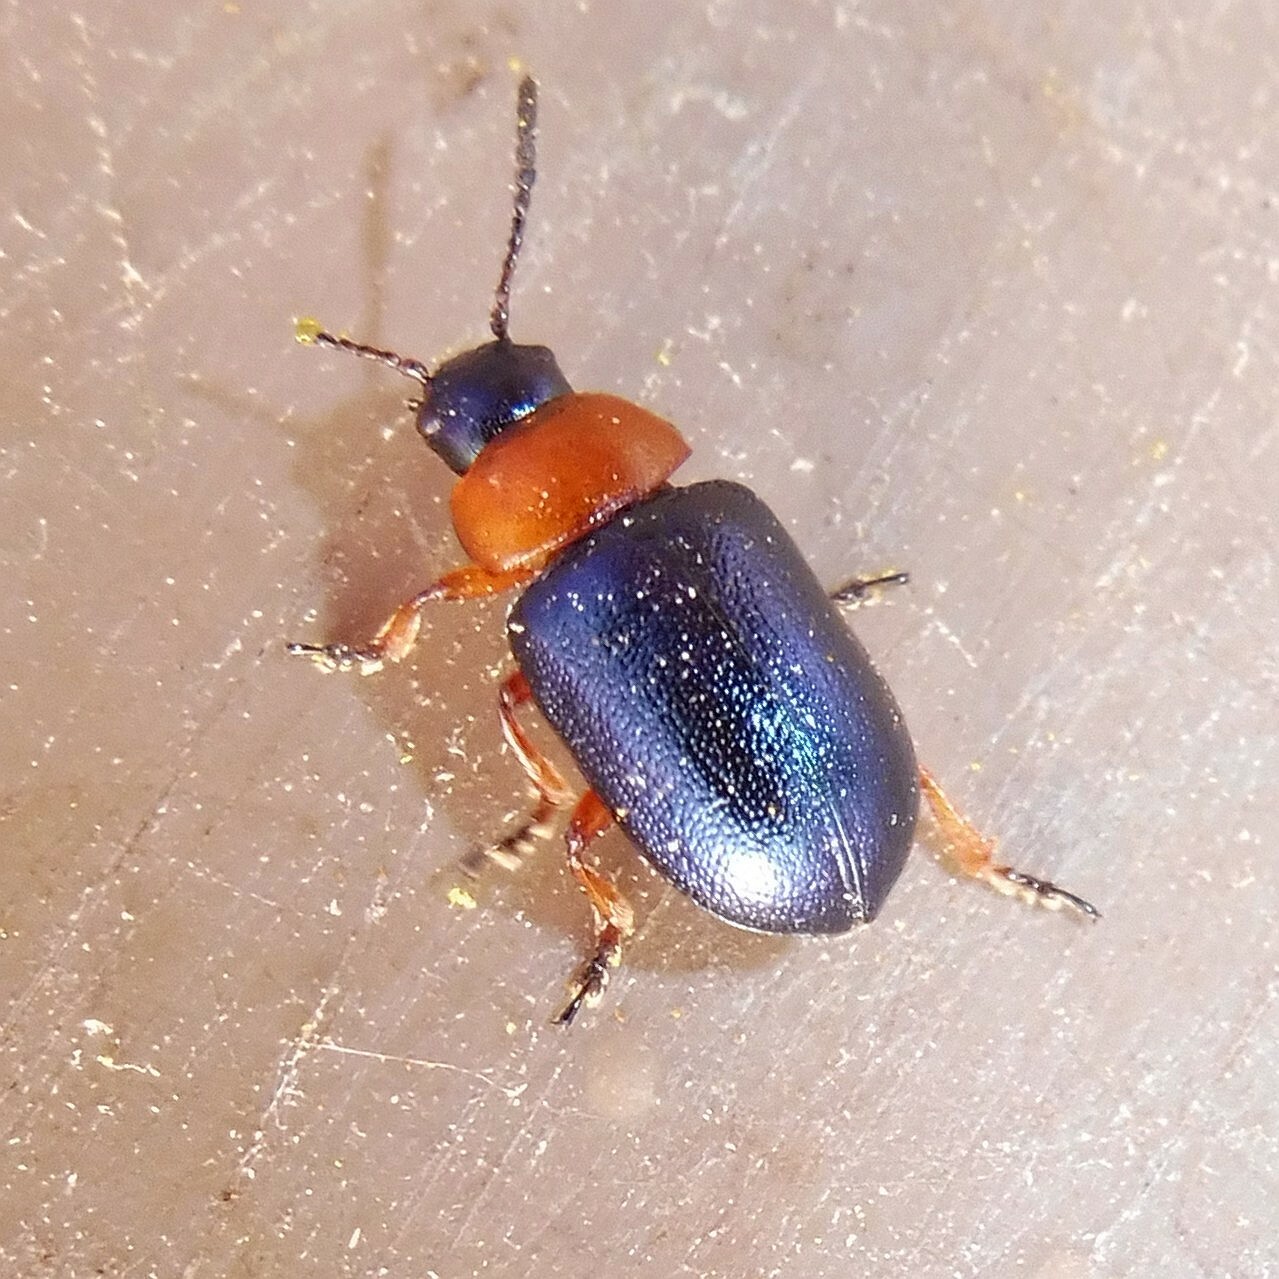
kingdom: Animalia
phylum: Arthropoda
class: Insecta
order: Coleoptera
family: Chrysomelidae
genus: Gastrophysa
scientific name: Gastrophysa polygoni
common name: Knotweed leaf beetle
